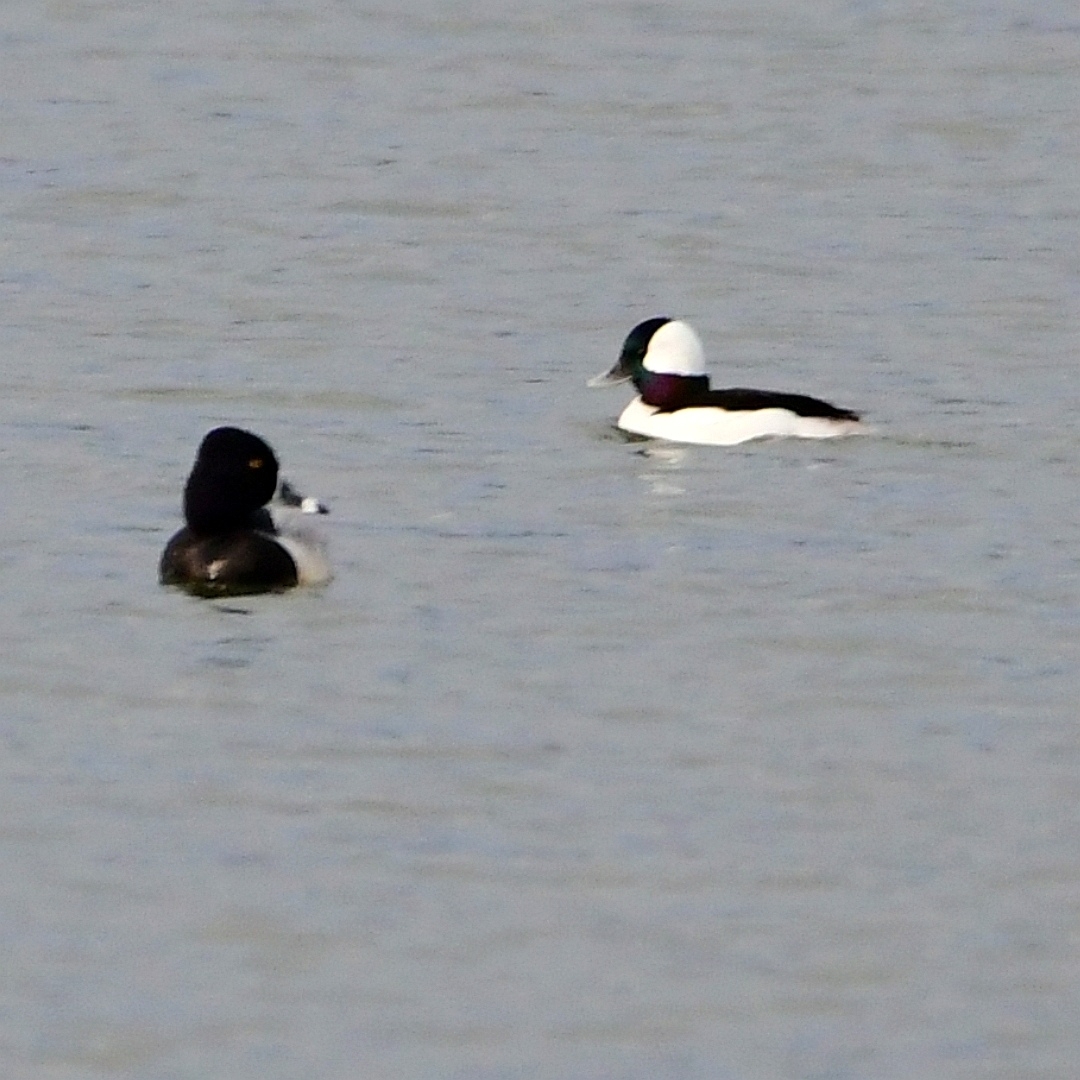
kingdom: Animalia
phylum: Chordata
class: Aves
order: Anseriformes
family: Anatidae
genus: Bucephala
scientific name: Bucephala albeola
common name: Bufflehead
